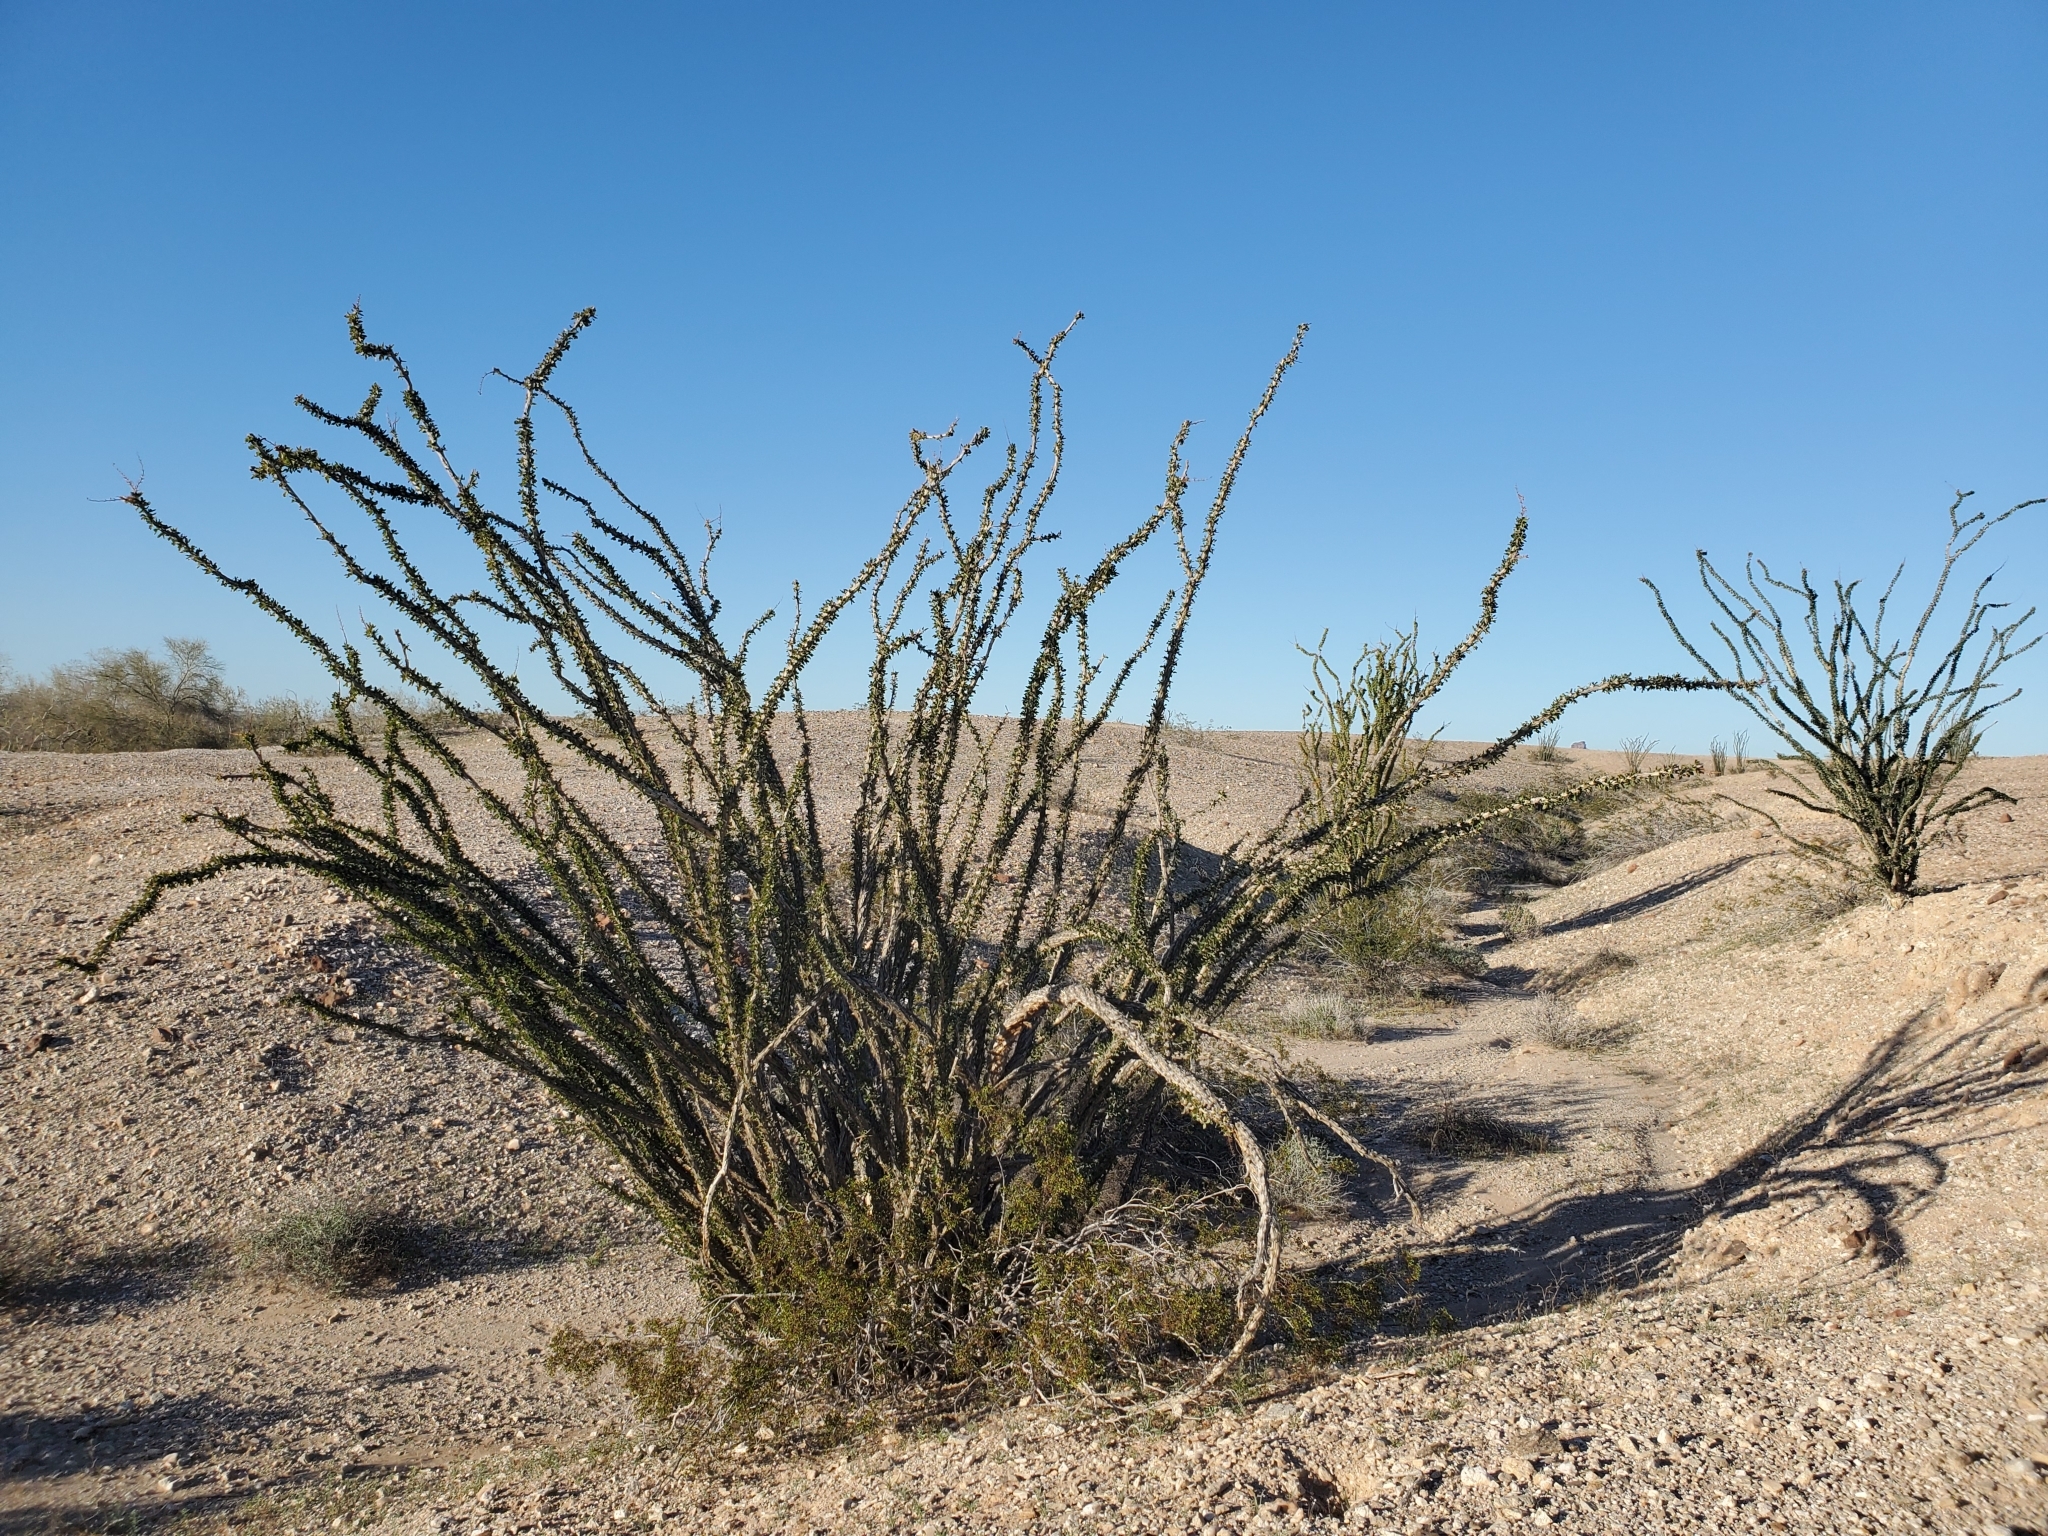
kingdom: Plantae
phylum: Tracheophyta
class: Magnoliopsida
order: Ericales
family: Fouquieriaceae
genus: Fouquieria
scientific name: Fouquieria splendens
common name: Vine-cactus
